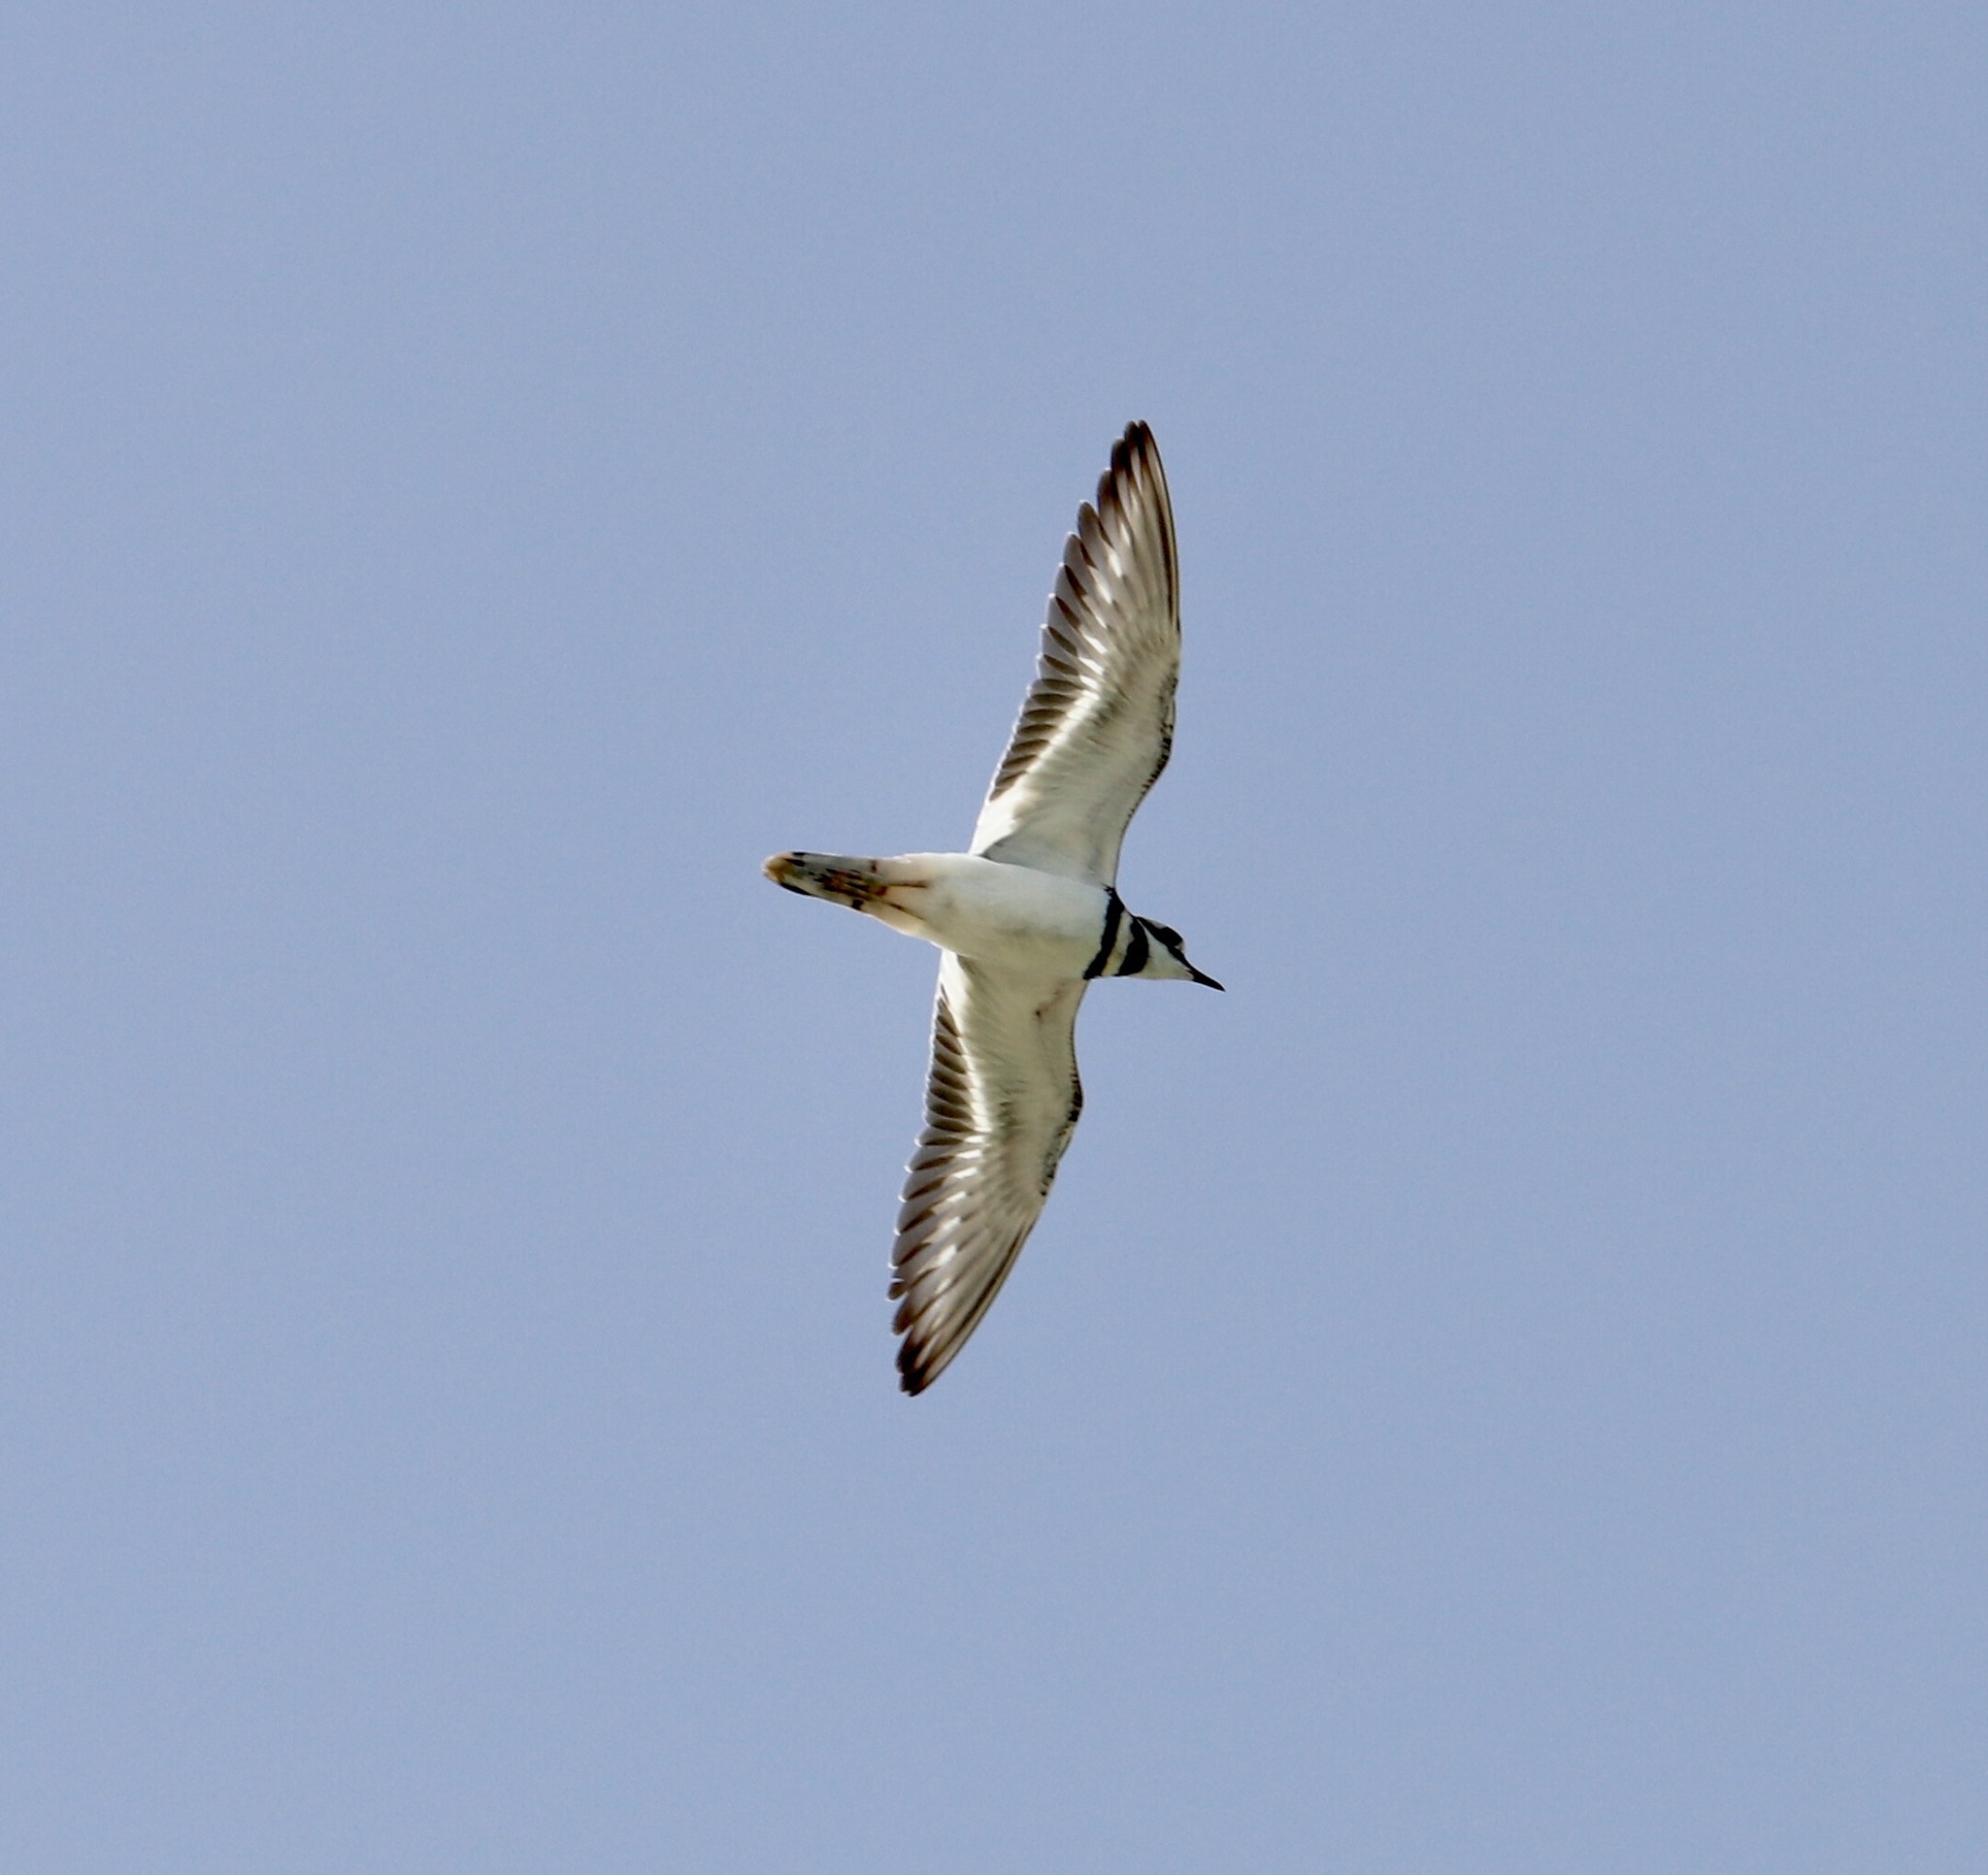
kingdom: Animalia
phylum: Chordata
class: Aves
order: Charadriiformes
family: Charadriidae
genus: Charadrius
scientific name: Charadrius vociferus
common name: Killdeer
